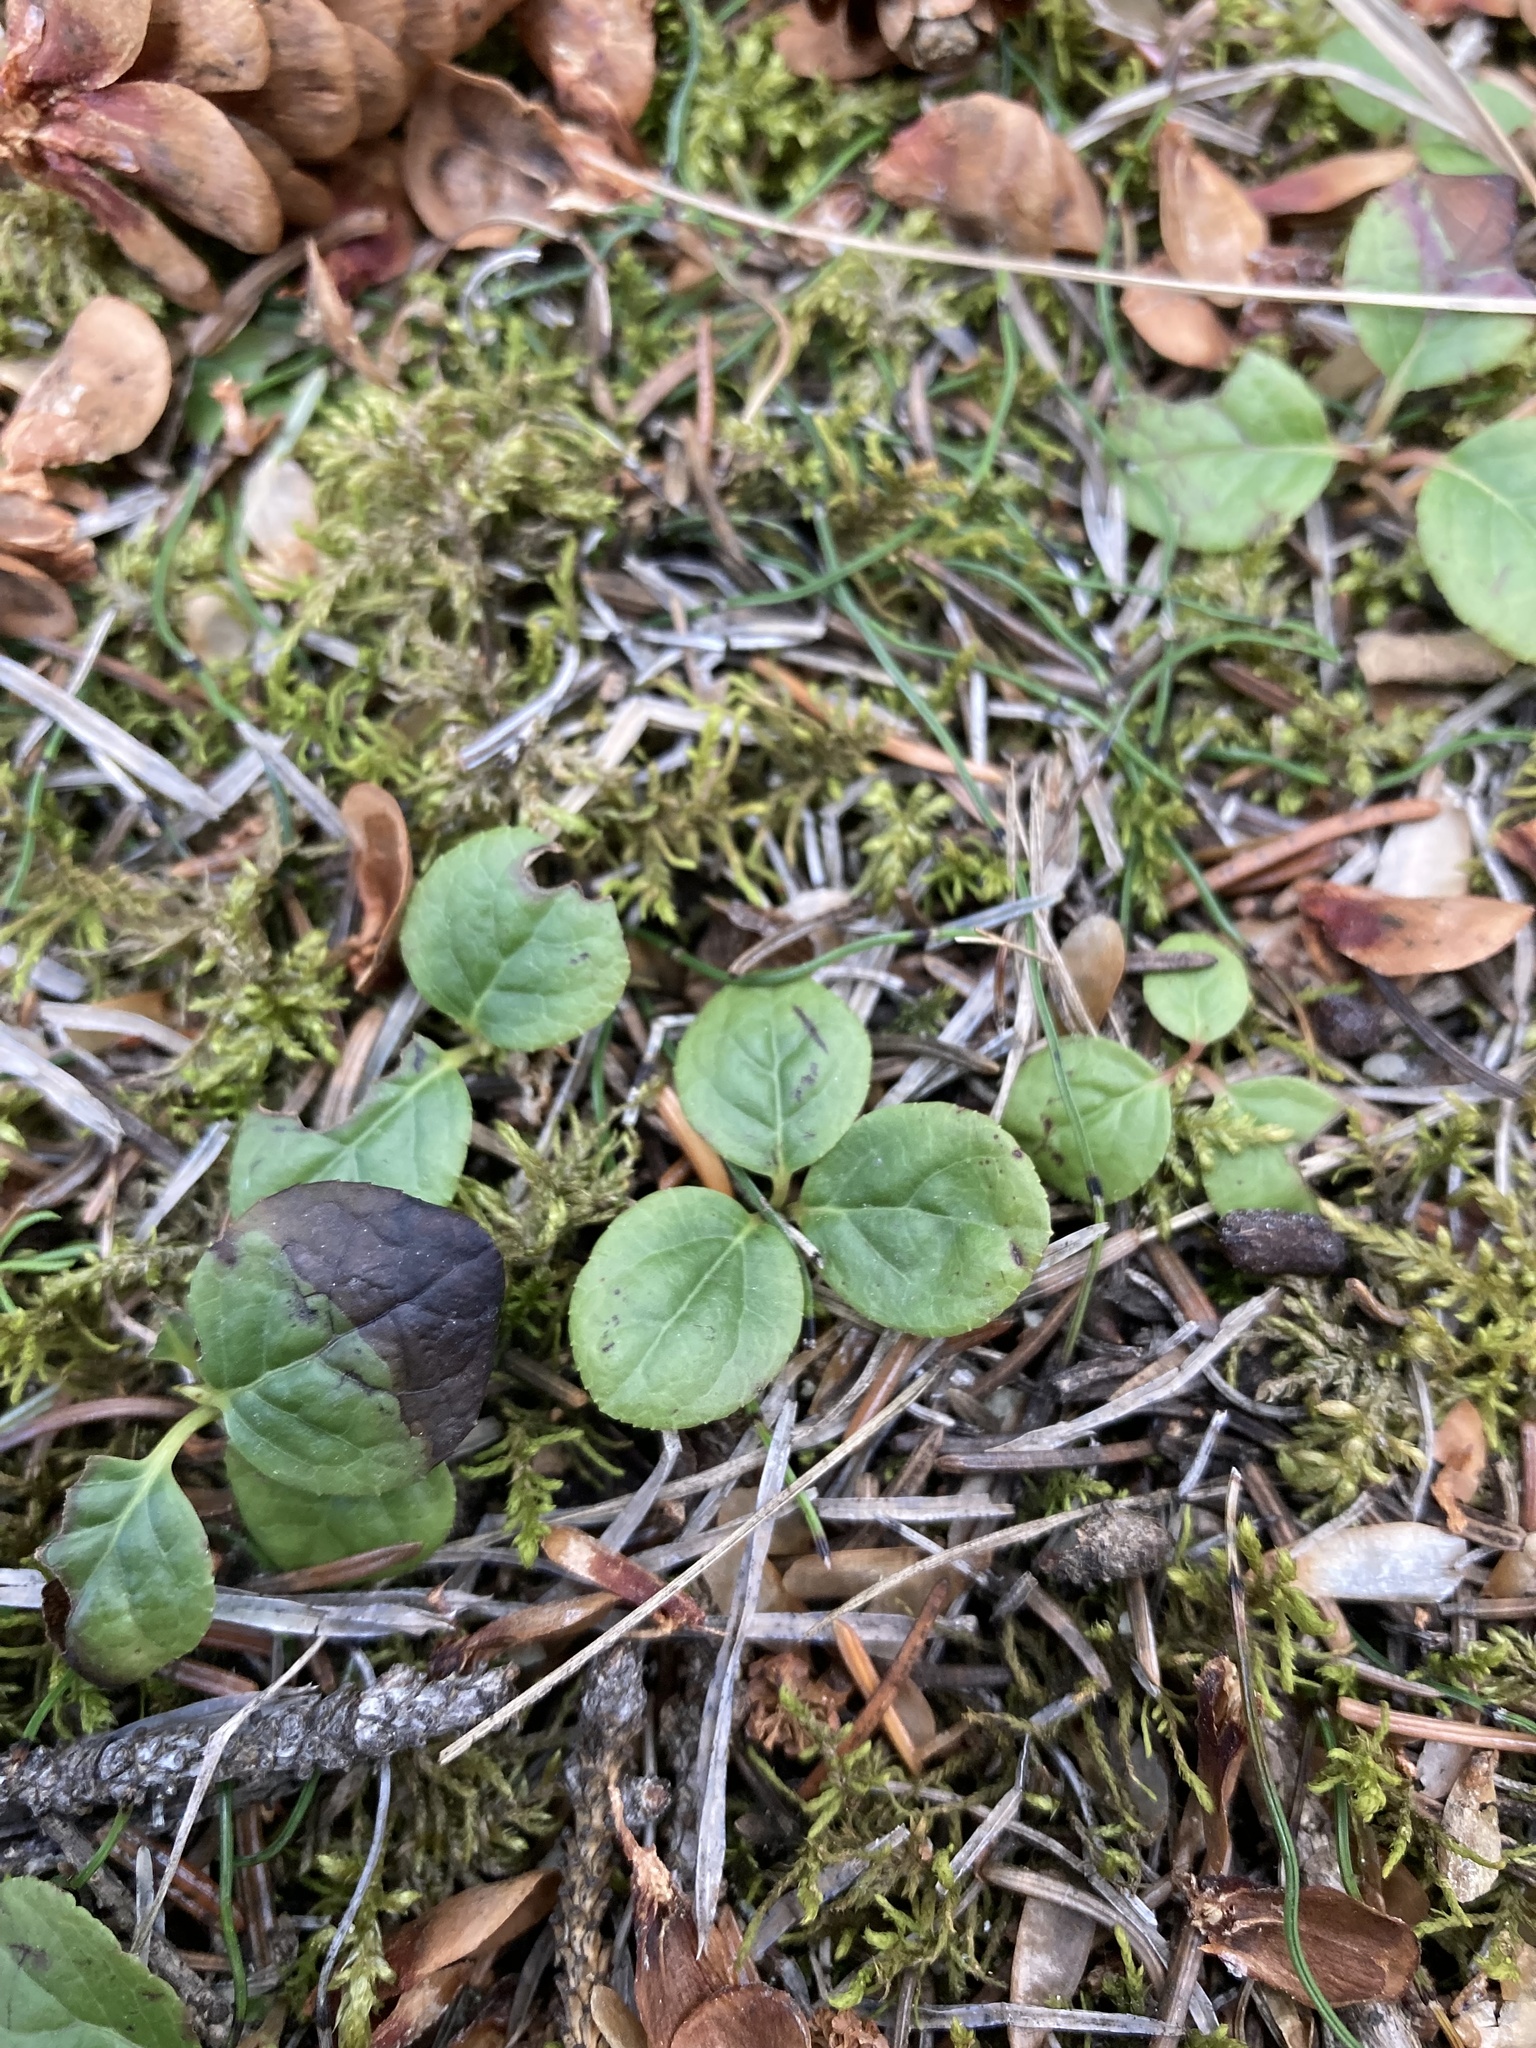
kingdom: Plantae
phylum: Tracheophyta
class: Magnoliopsida
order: Ericales
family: Ericaceae
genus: Orthilia
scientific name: Orthilia secunda
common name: One-sided orthilia
